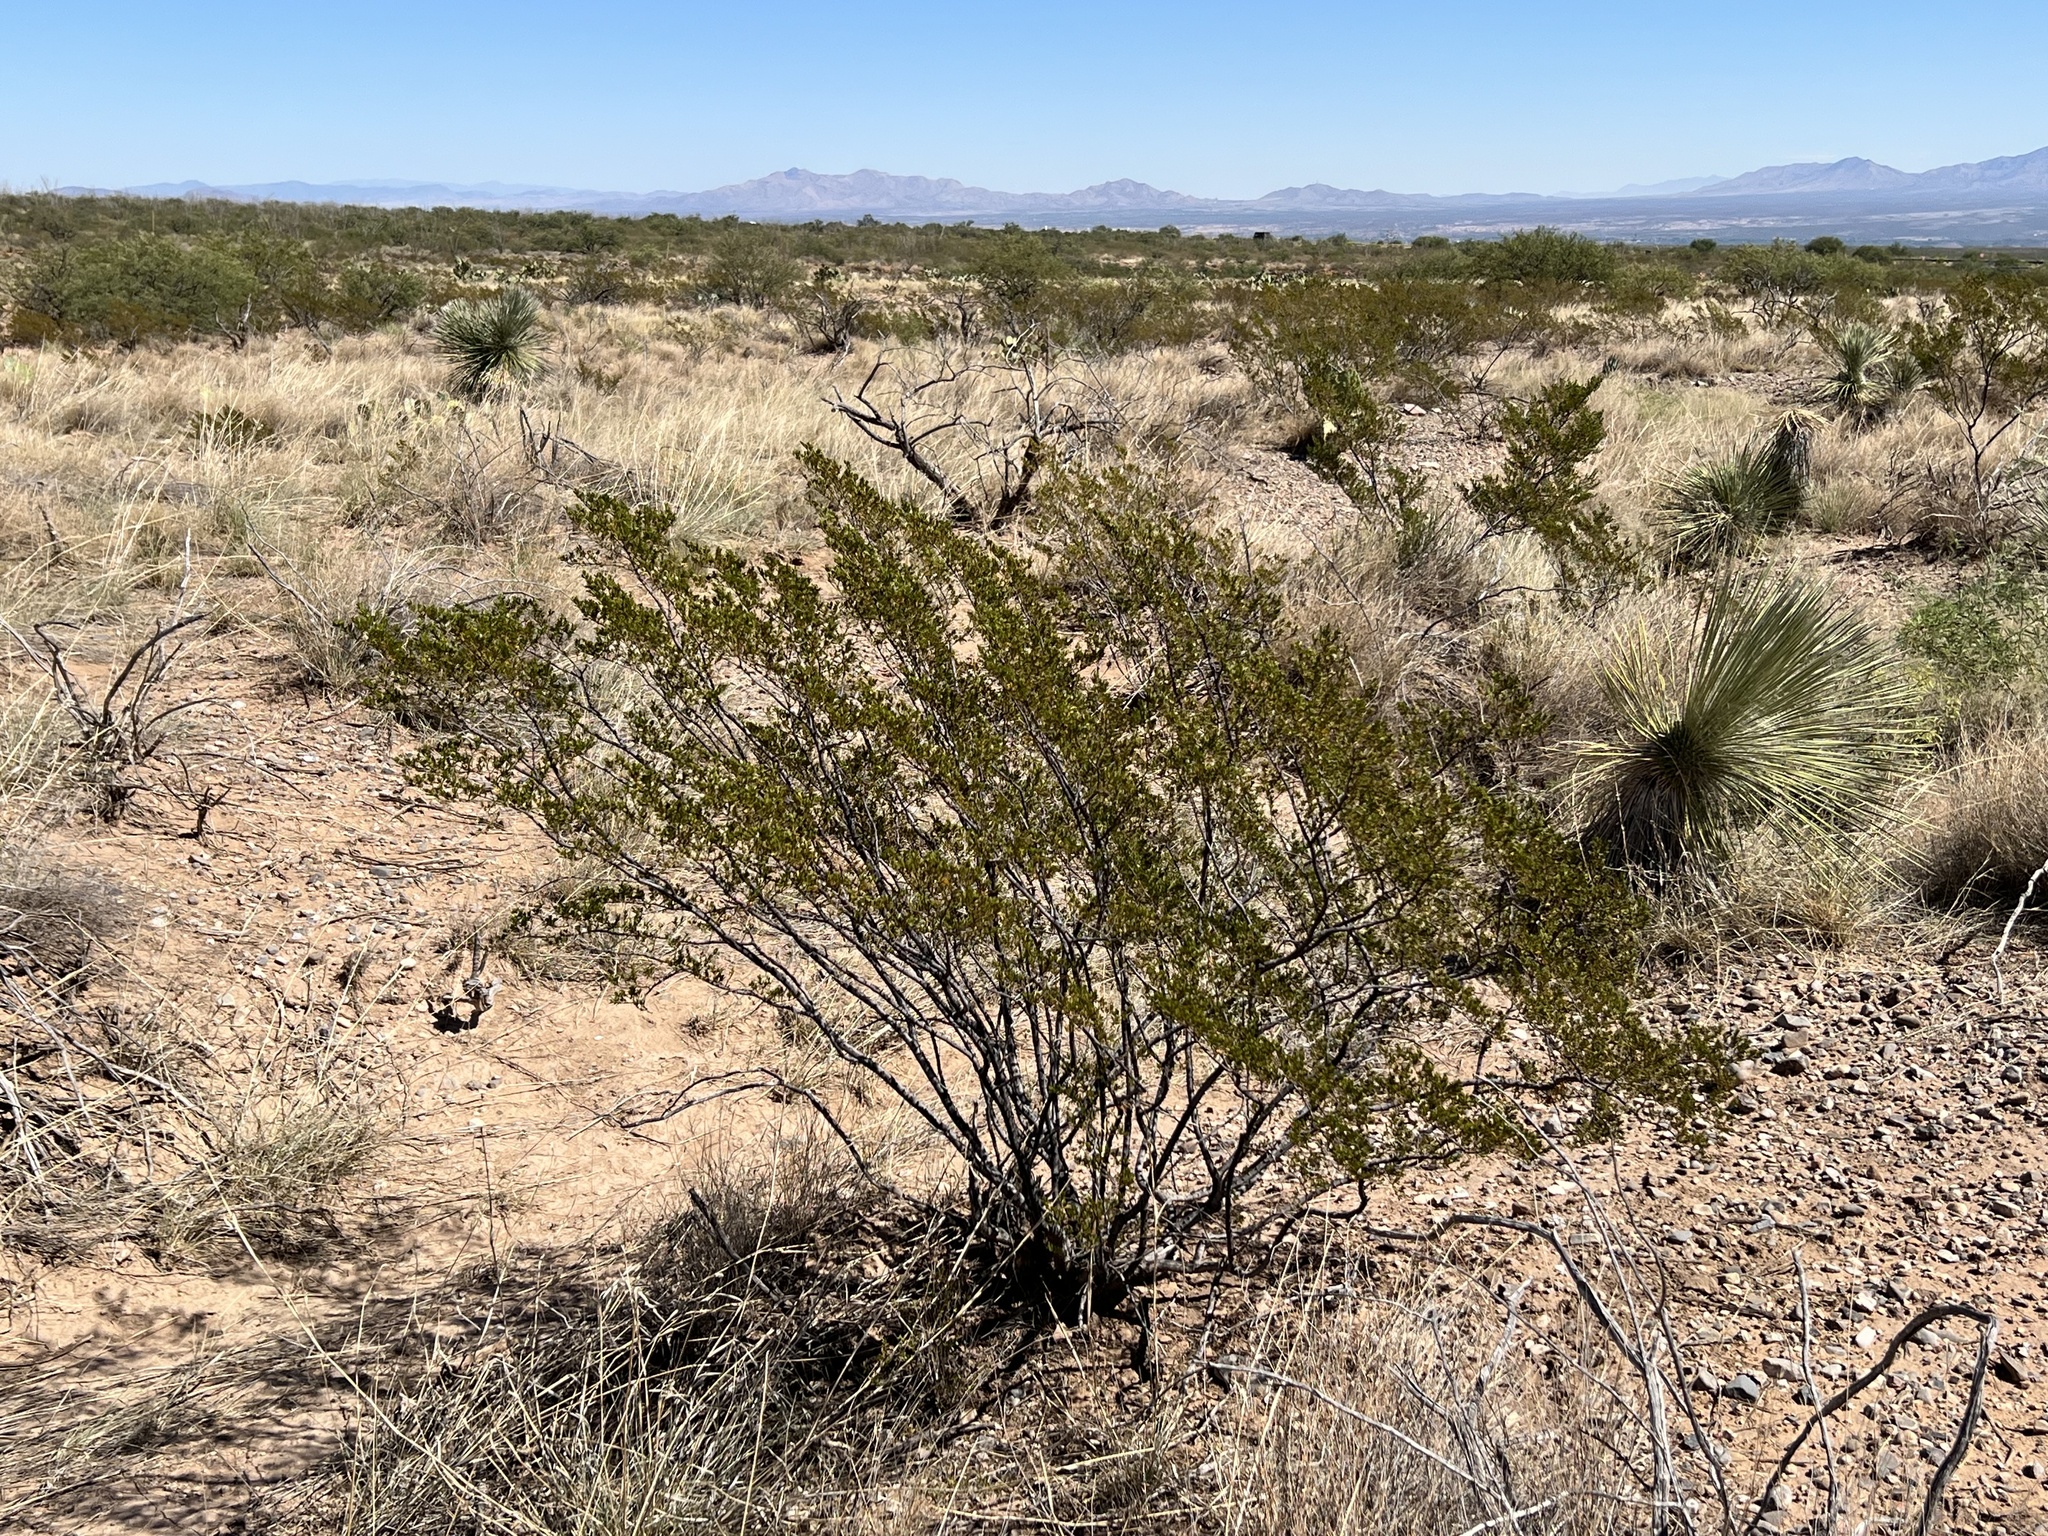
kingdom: Plantae
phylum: Tracheophyta
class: Magnoliopsida
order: Zygophyllales
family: Zygophyllaceae
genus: Larrea
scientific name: Larrea tridentata
